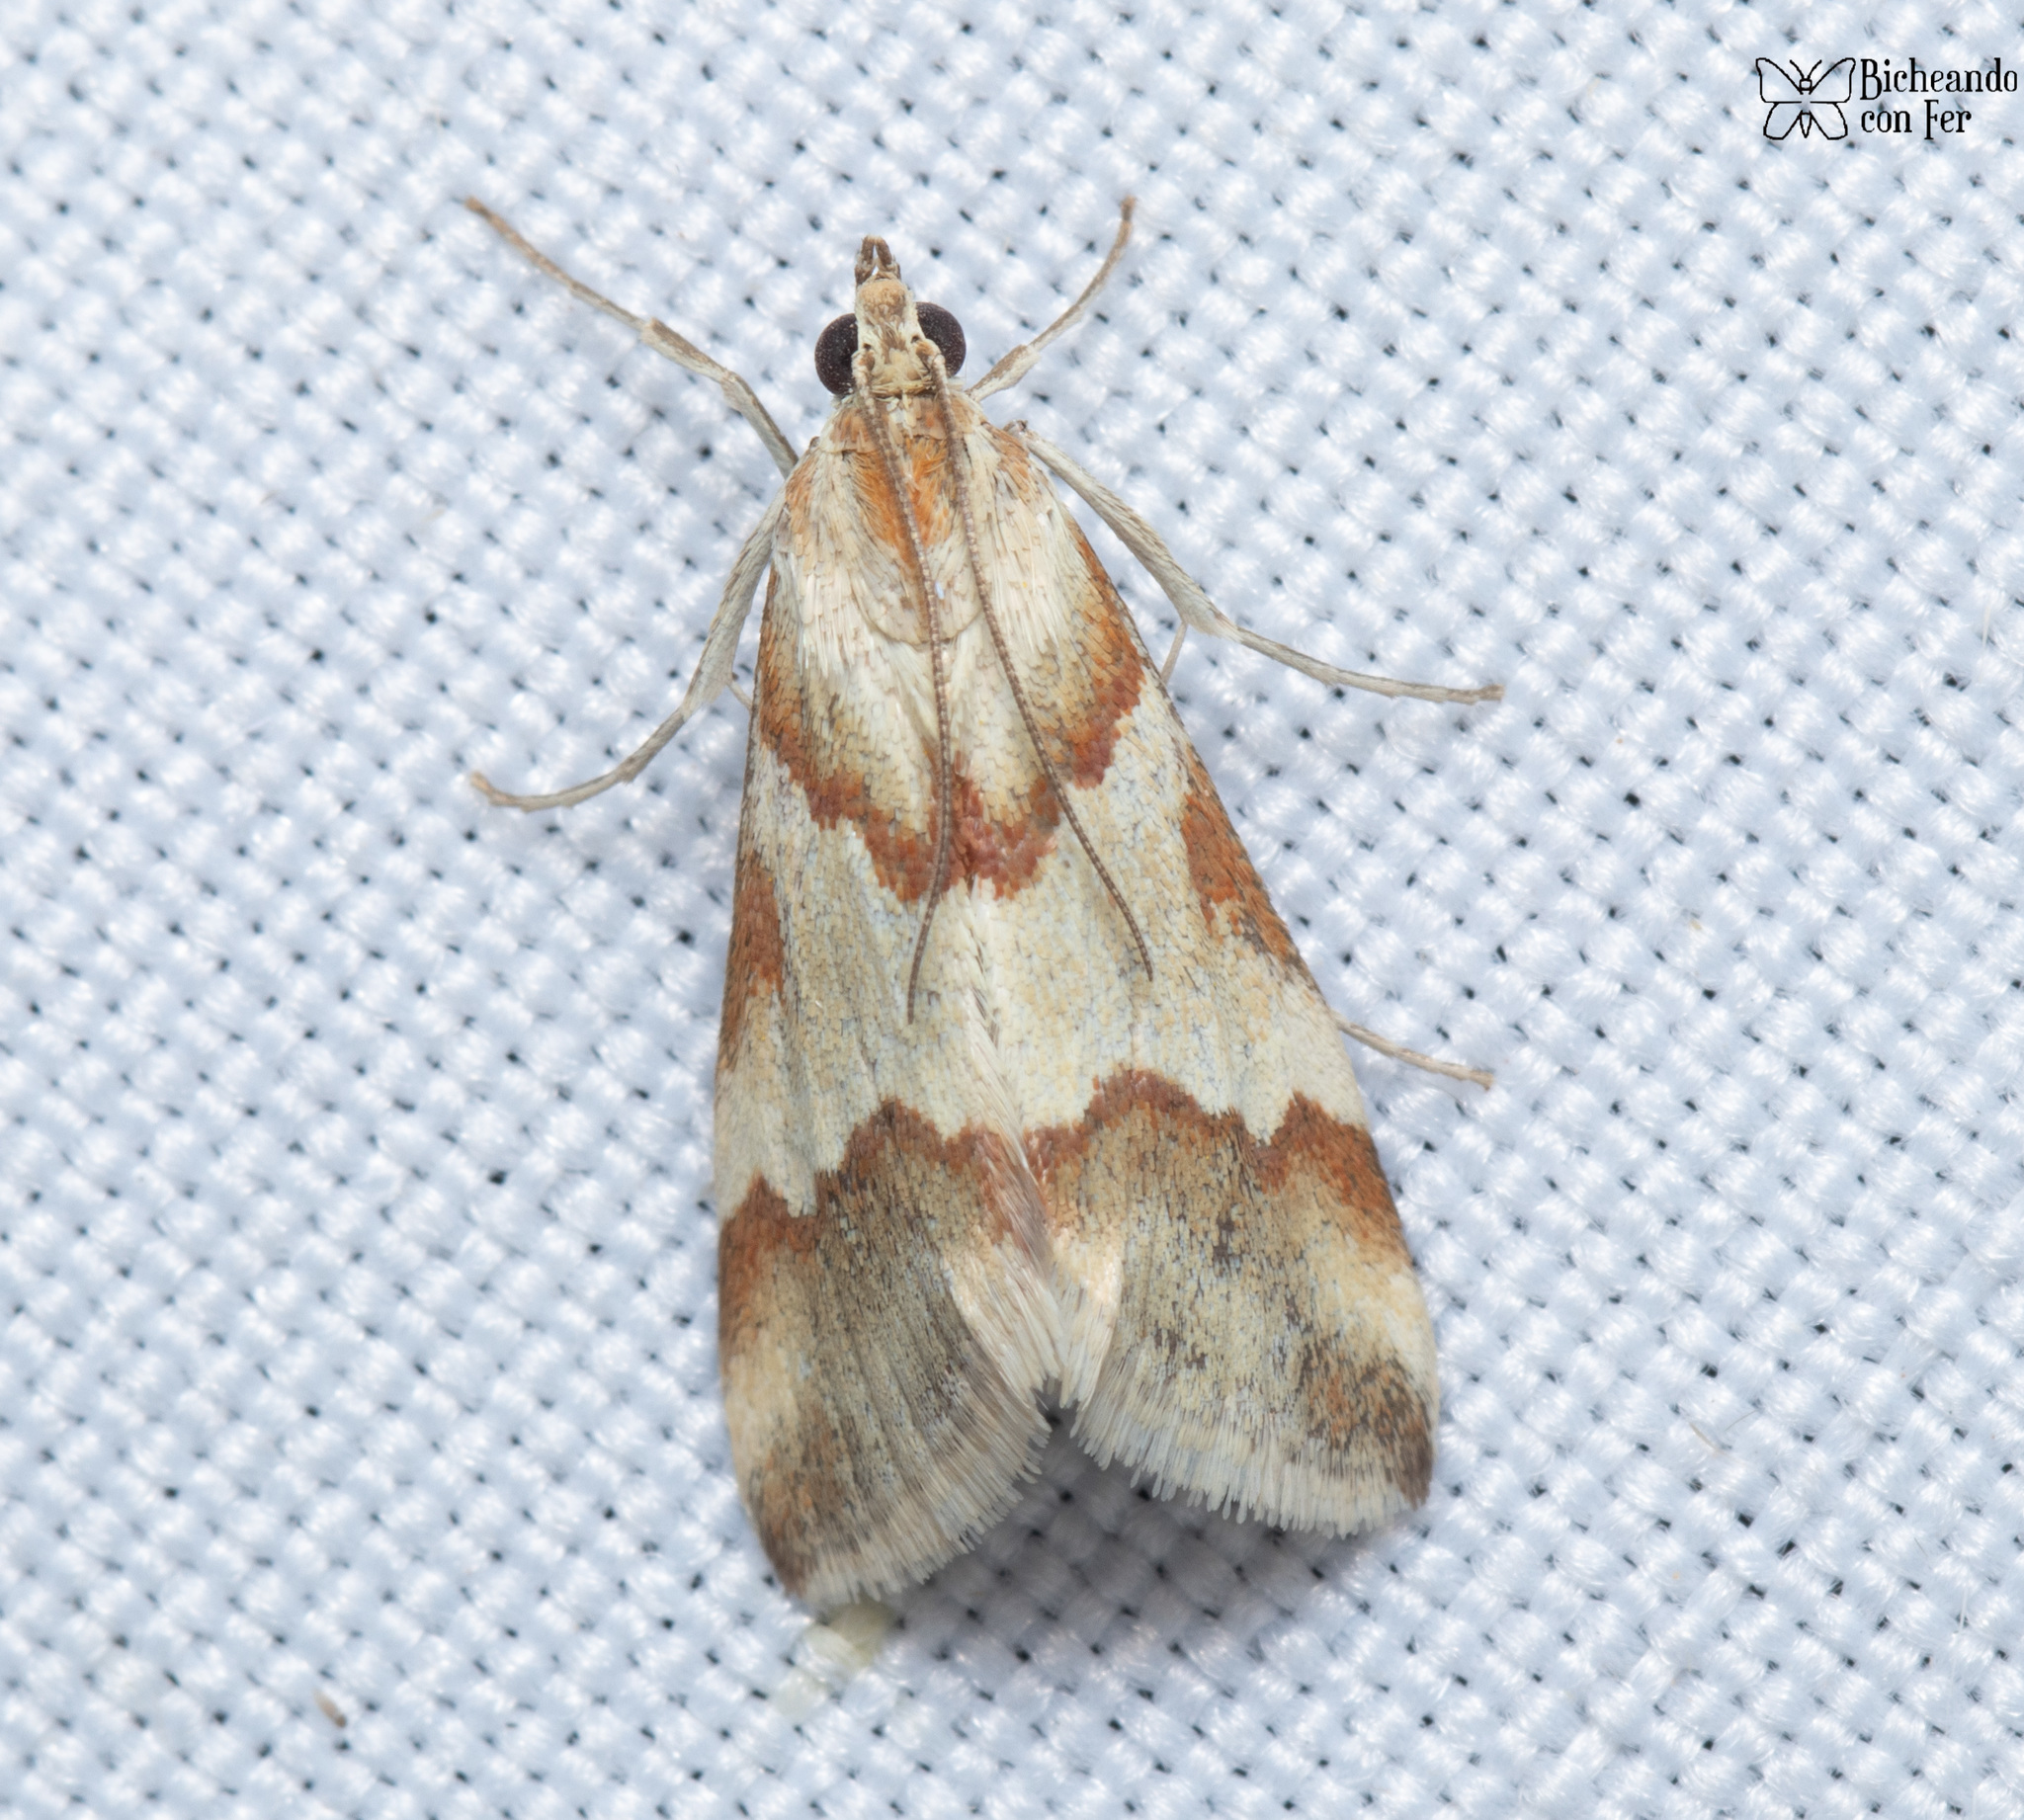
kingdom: Animalia
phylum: Arthropoda
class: Insecta
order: Lepidoptera
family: Crambidae
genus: Noctuelia
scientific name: Noctuelia Mimoschinia rufofascialis
